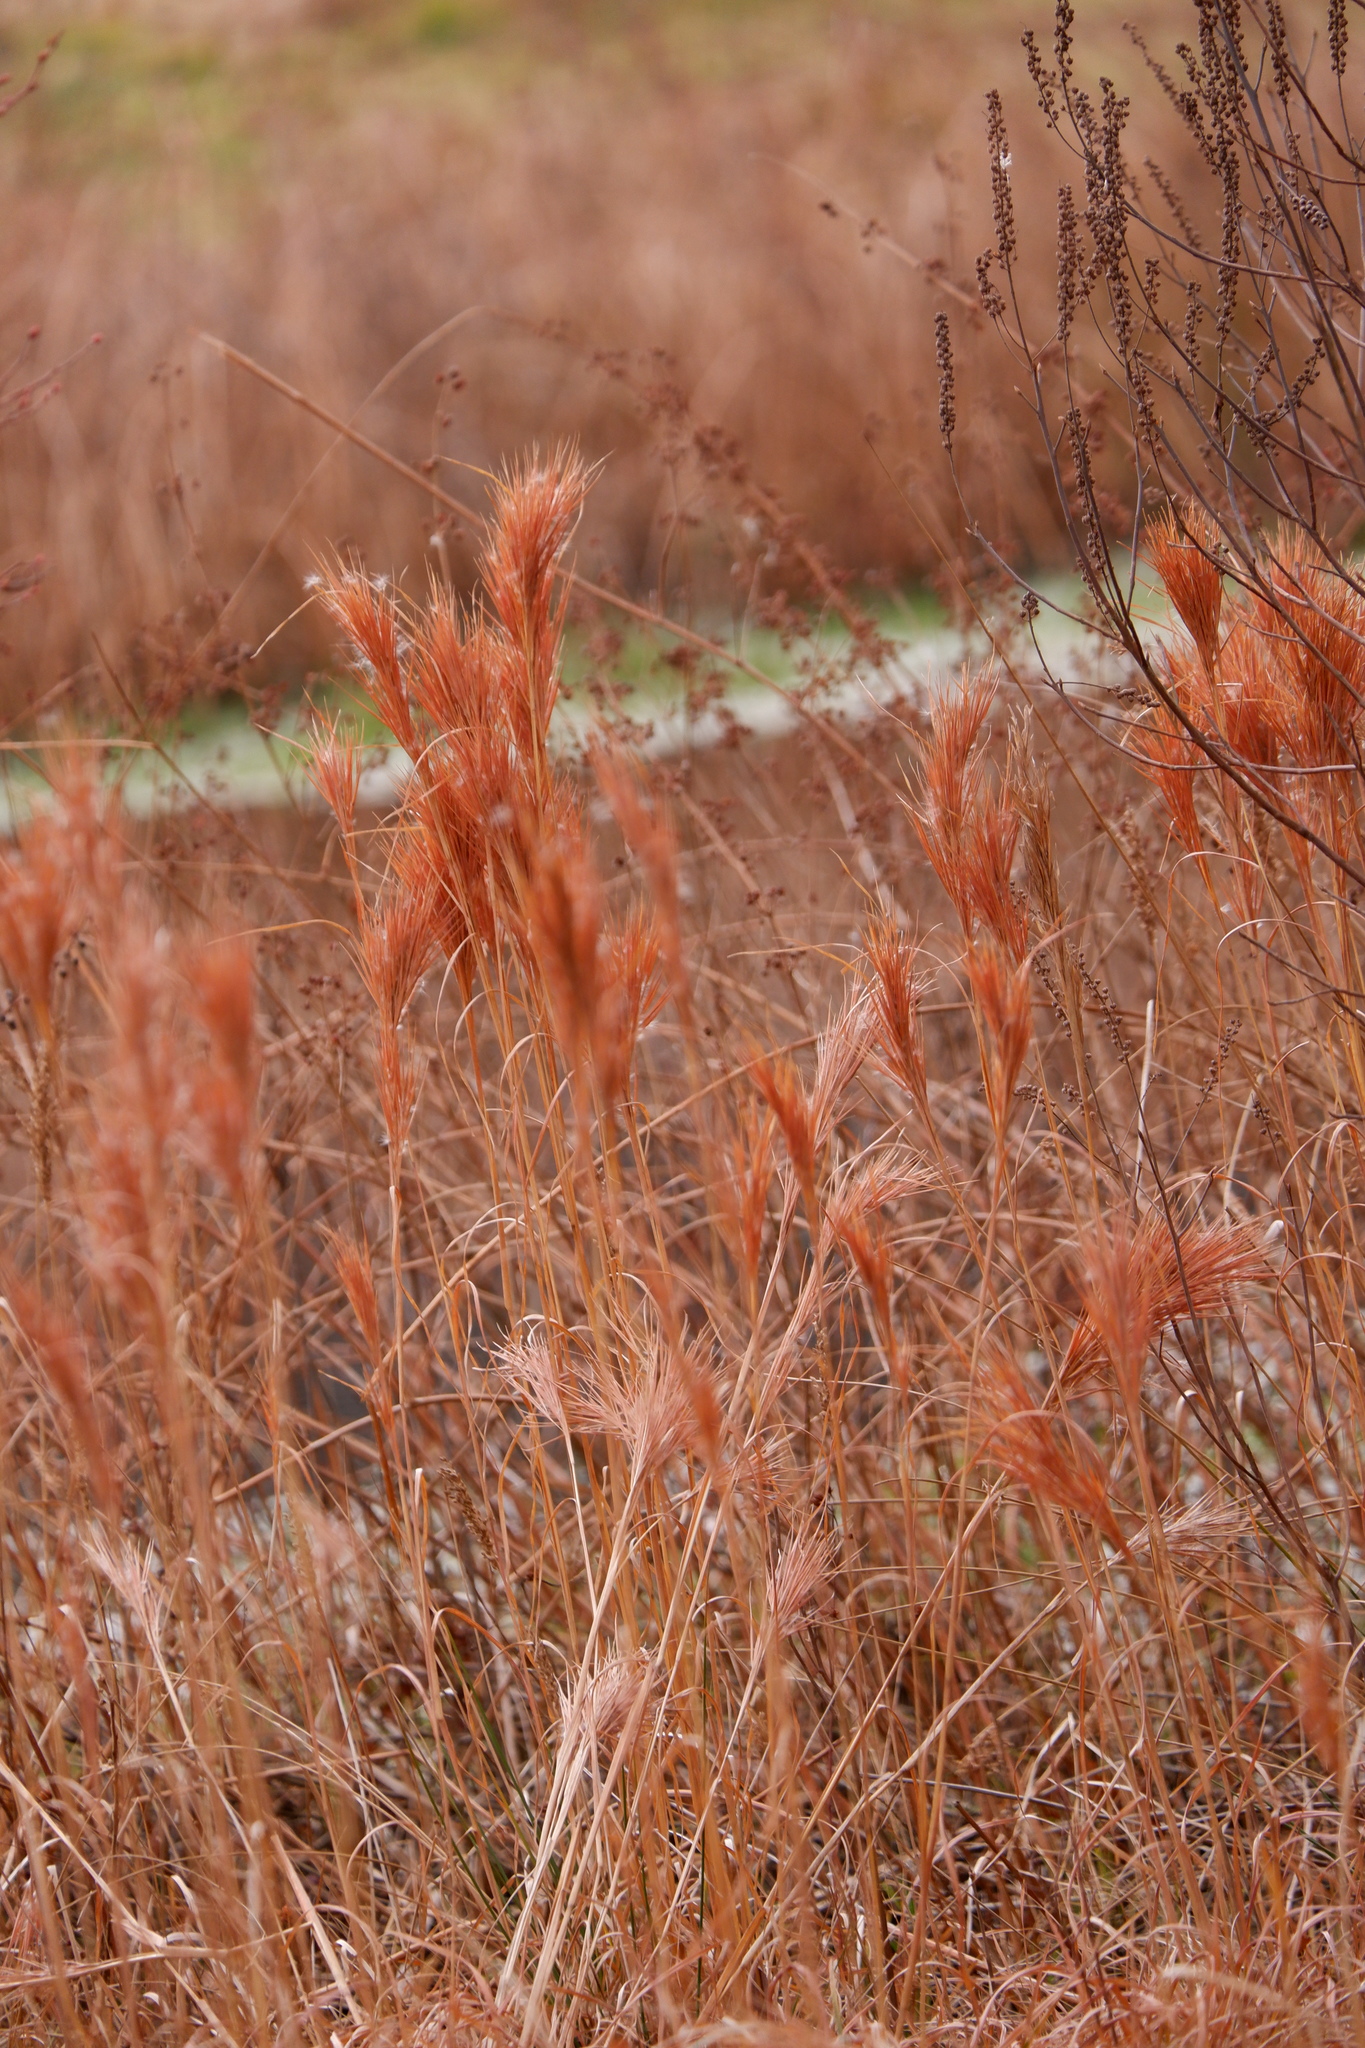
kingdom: Plantae
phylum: Tracheophyta
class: Liliopsida
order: Poales
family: Poaceae
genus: Andropogon
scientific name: Andropogon glomeratus
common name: Bushy beard grass
